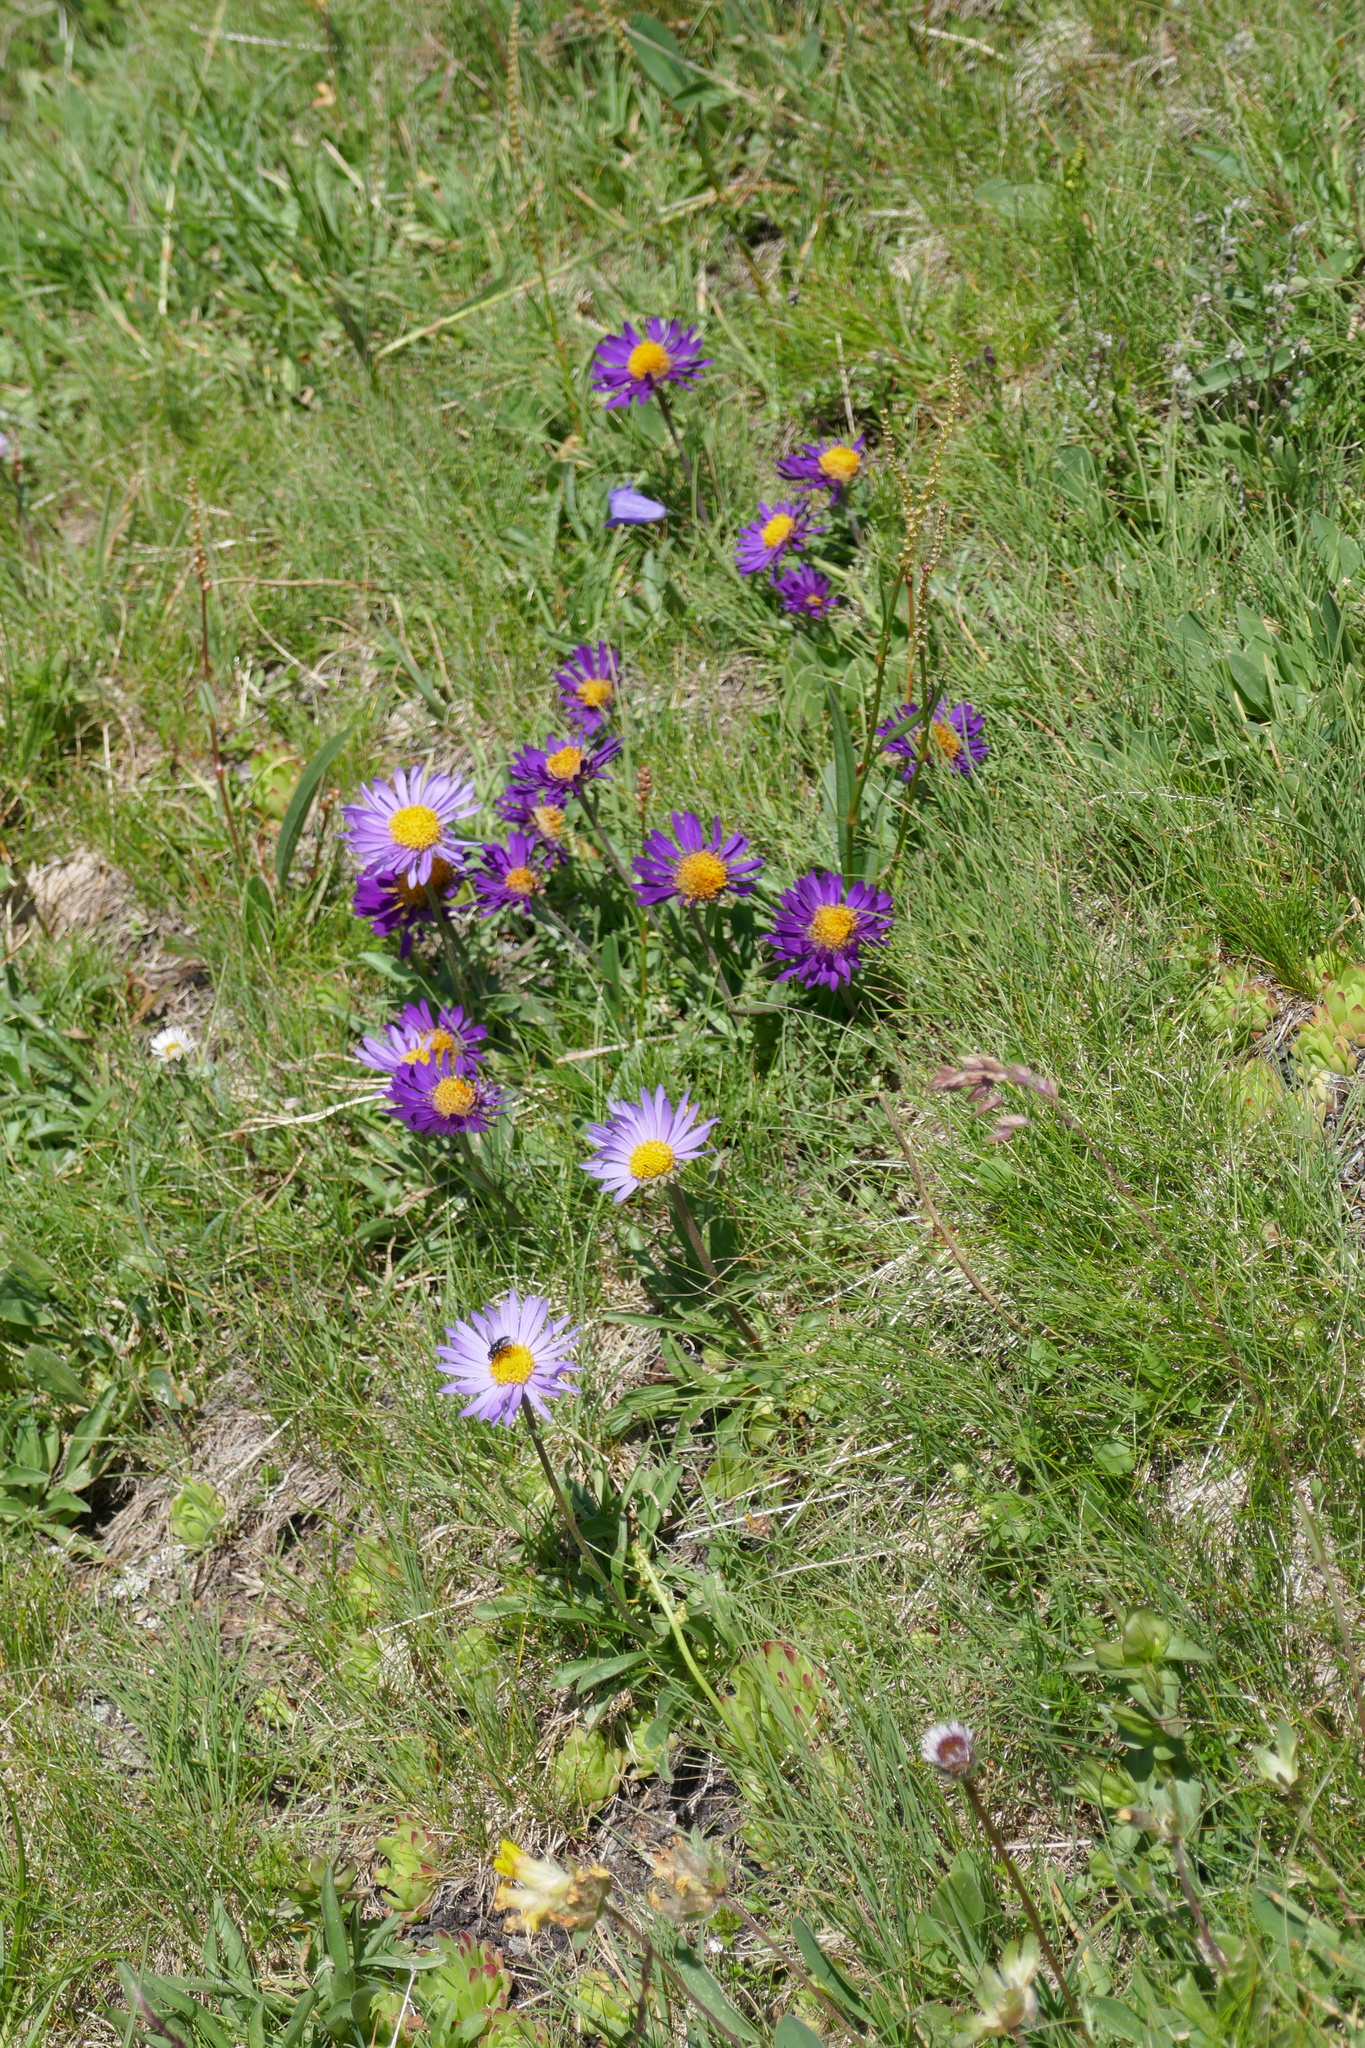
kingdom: Plantae
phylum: Tracheophyta
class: Magnoliopsida
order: Asterales
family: Asteraceae
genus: Aster
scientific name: Aster alpinus
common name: Alpine aster
